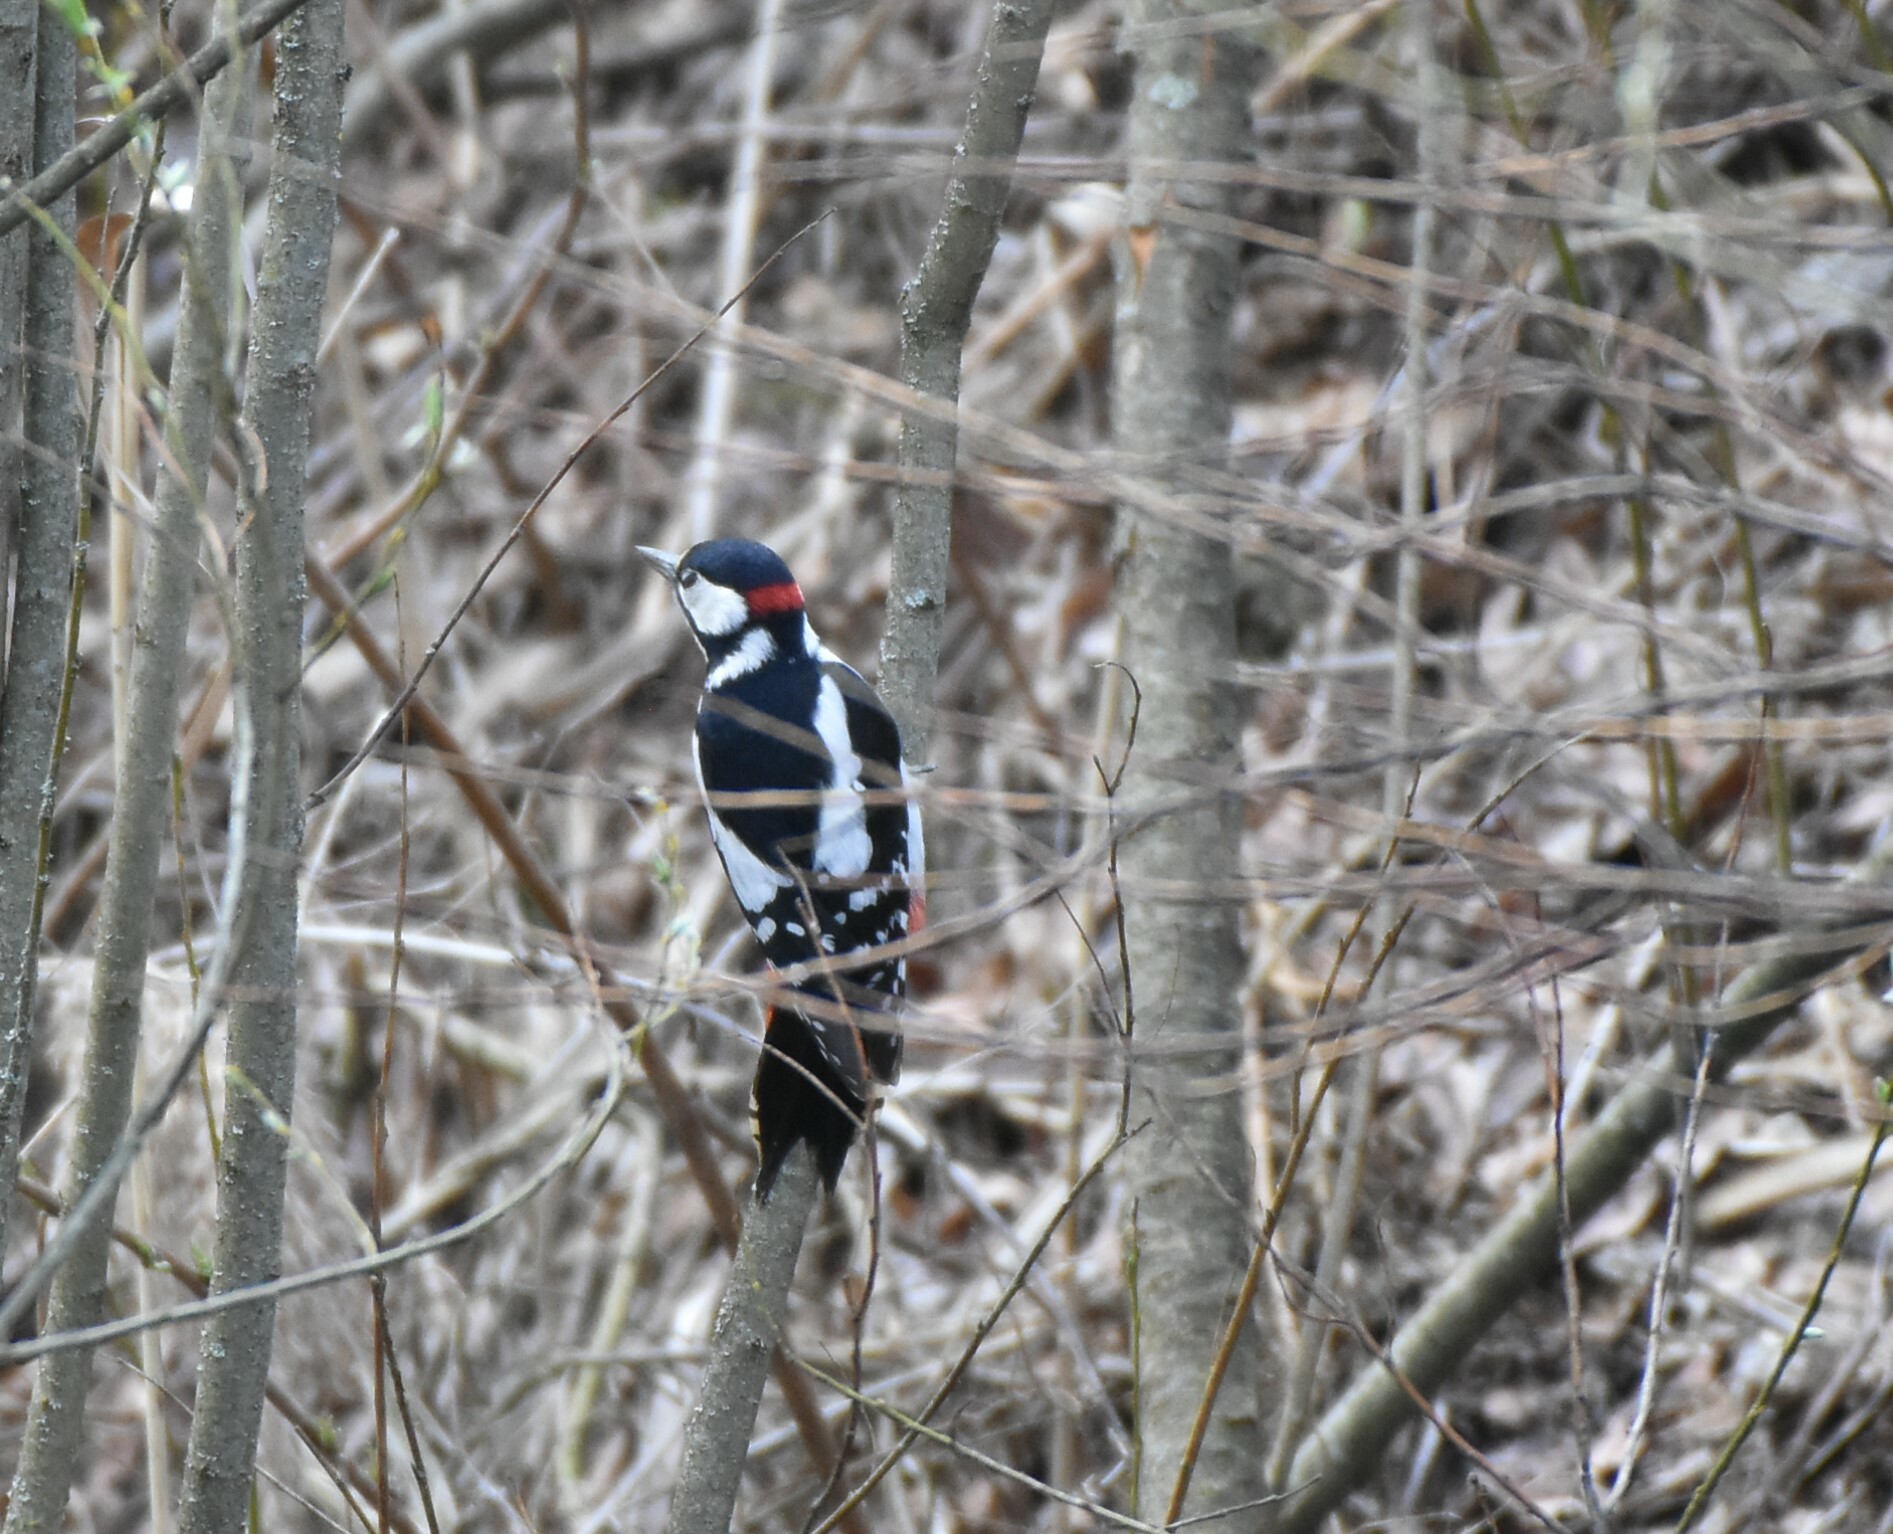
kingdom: Animalia
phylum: Chordata
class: Aves
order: Piciformes
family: Picidae
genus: Dendrocopos
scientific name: Dendrocopos major
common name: Great spotted woodpecker
